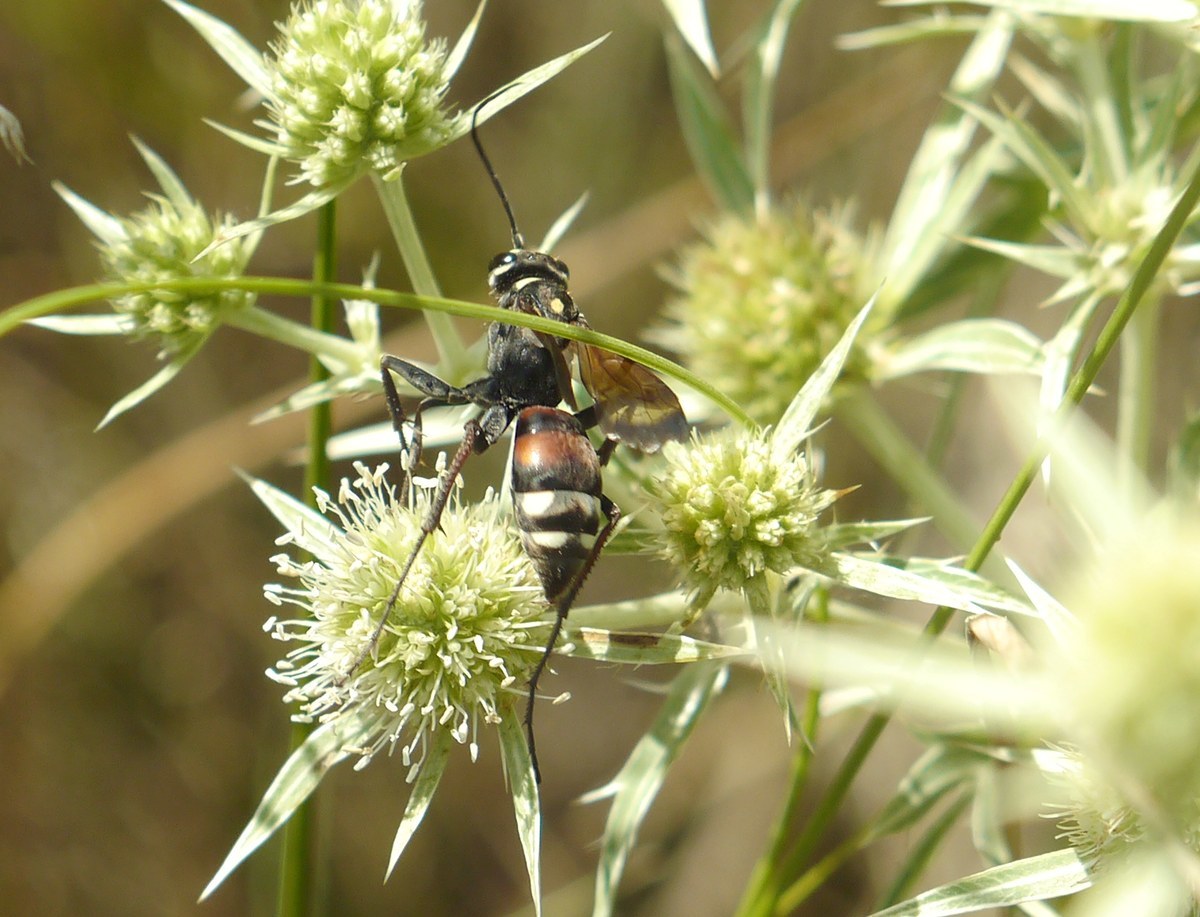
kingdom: Animalia
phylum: Arthropoda
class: Insecta
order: Hymenoptera
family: Pompilidae
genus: Cryptocheilus
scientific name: Cryptocheilus egregius
